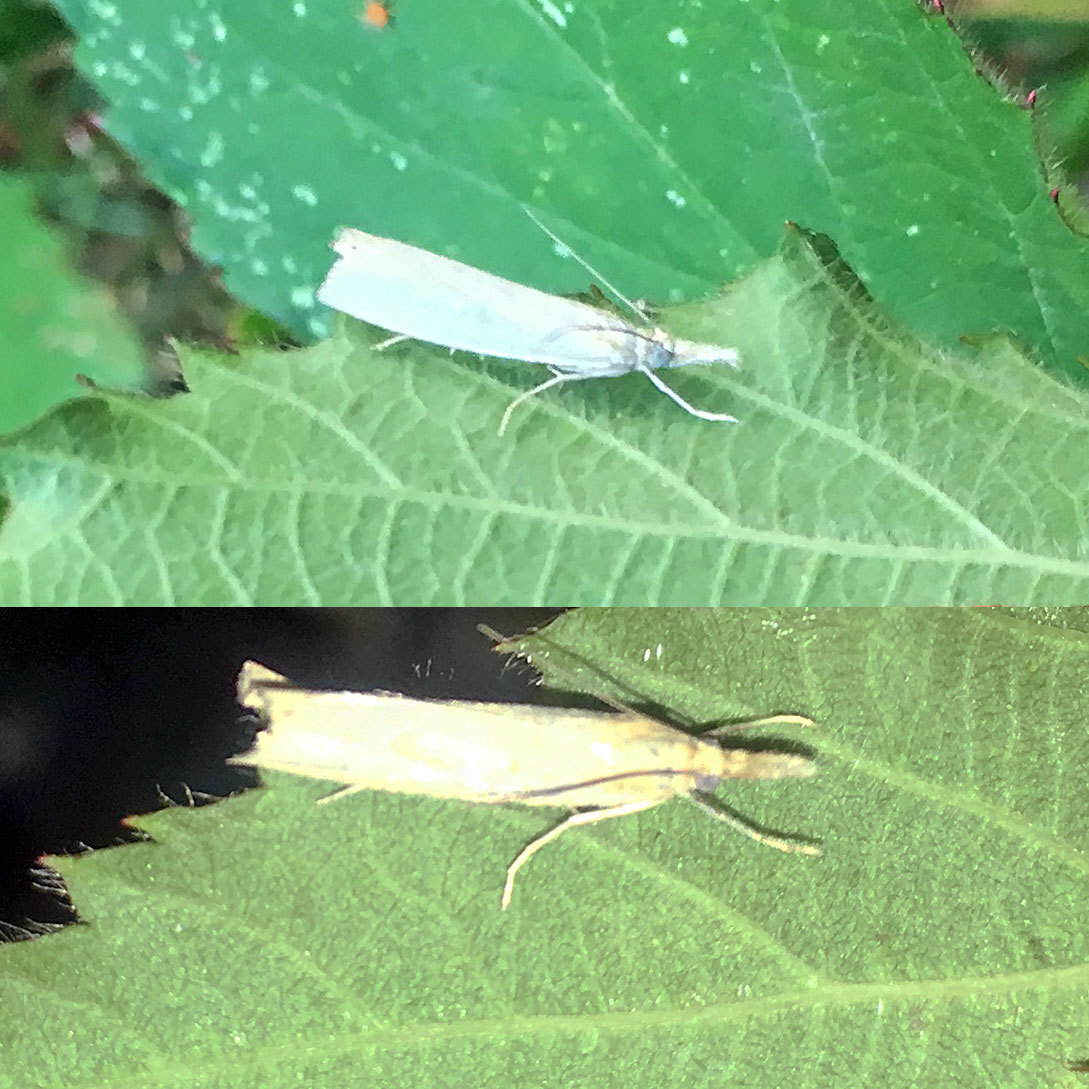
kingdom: Animalia
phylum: Arthropoda
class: Insecta
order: Lepidoptera
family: Crambidae
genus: Crambus
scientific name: Crambus perlellus
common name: Yellow satin veneer
